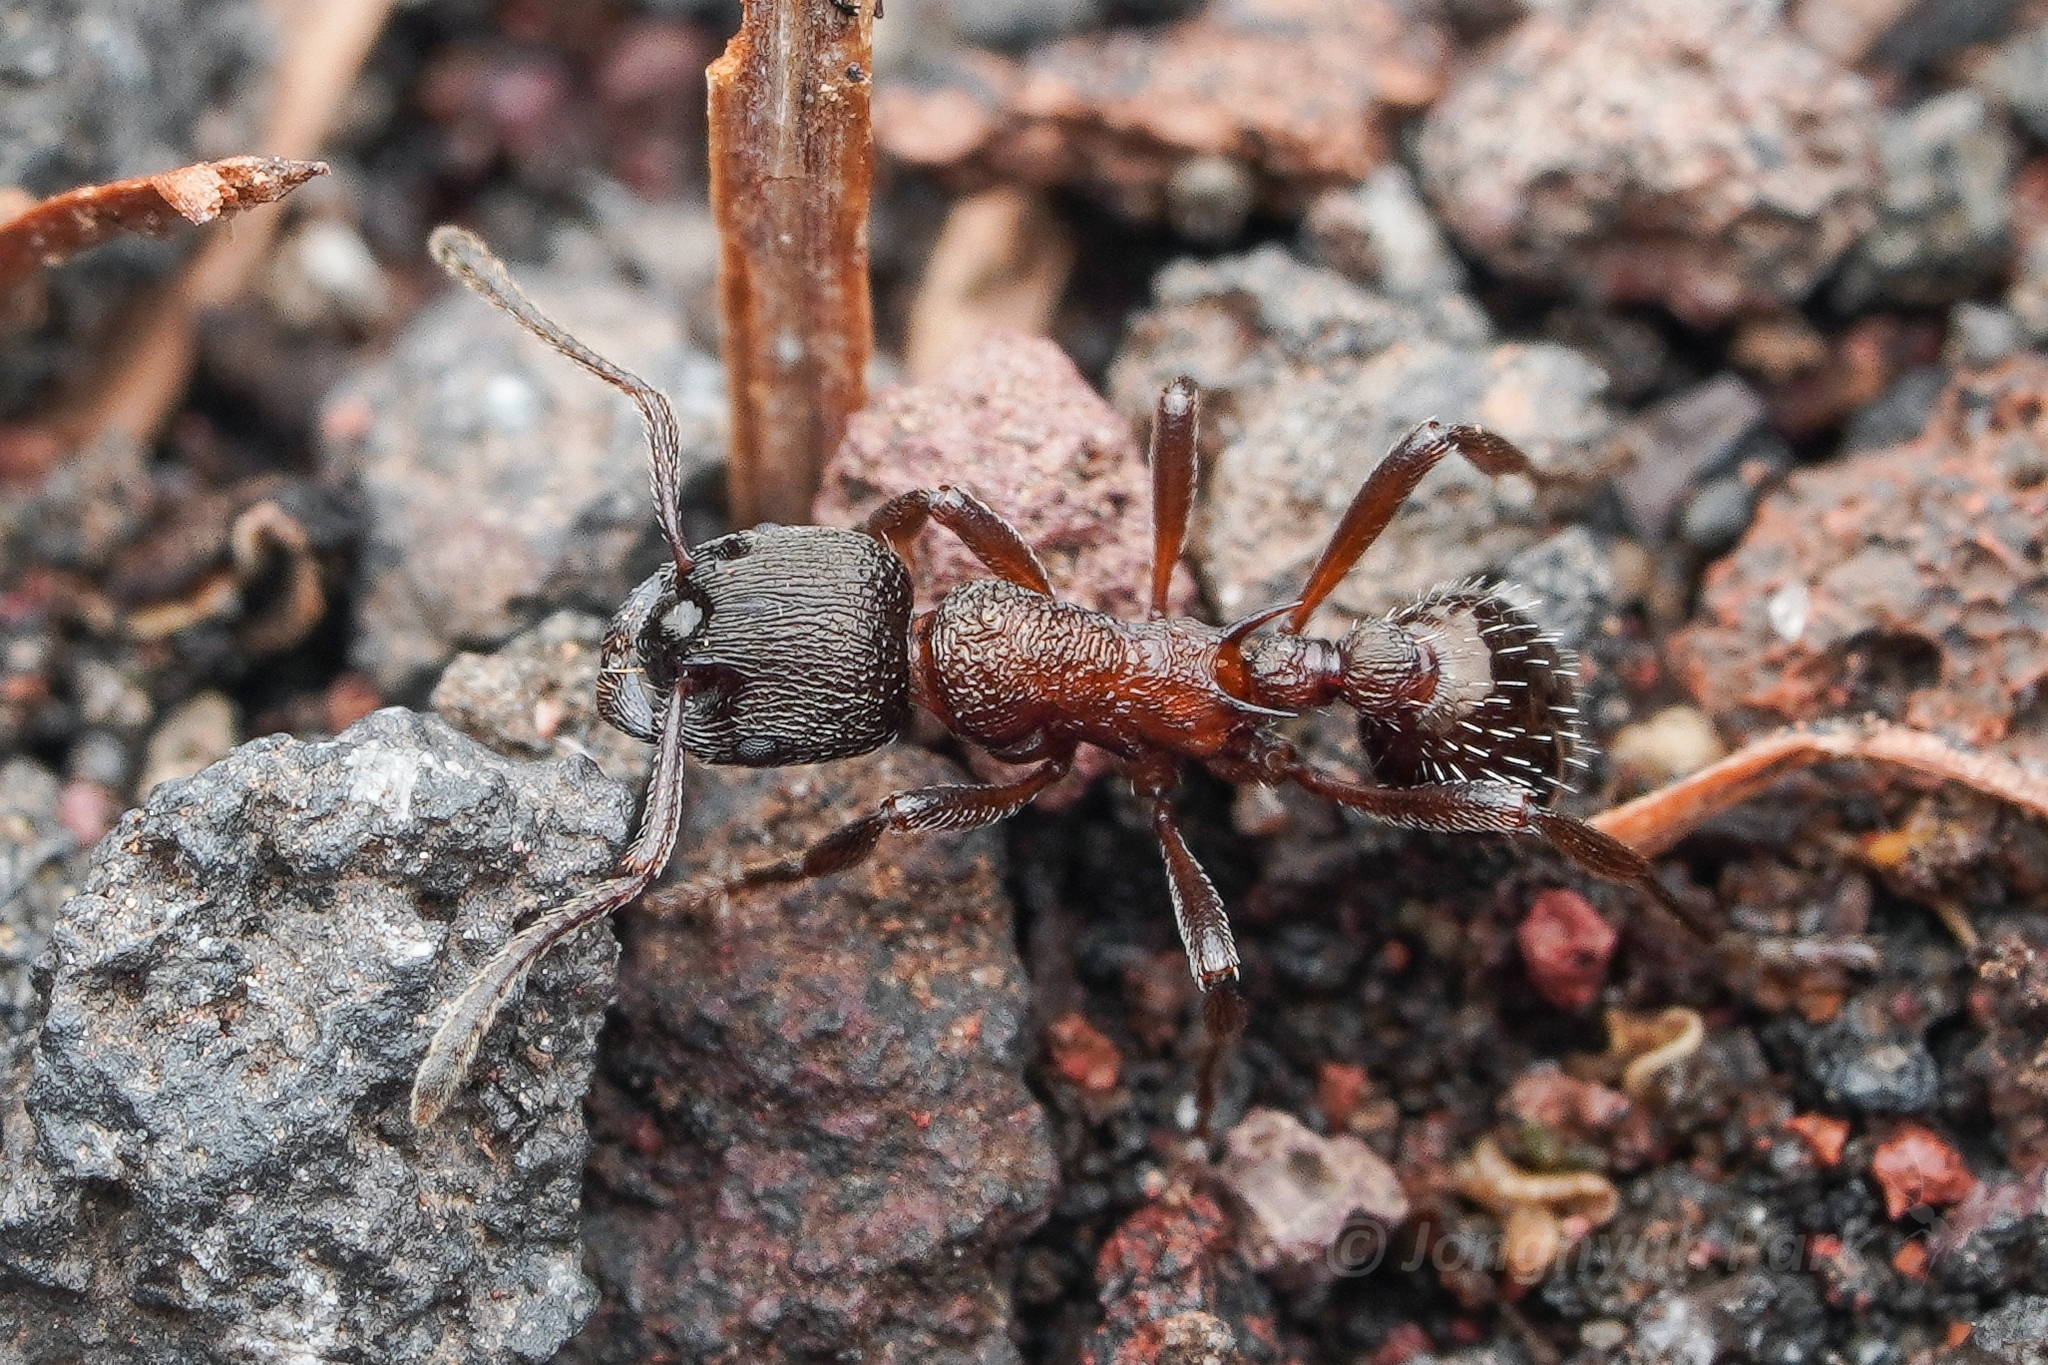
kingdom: Animalia
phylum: Arthropoda
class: Insecta
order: Hymenoptera
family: Formicidae
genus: Myrmica
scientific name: Myrmica kurokii
